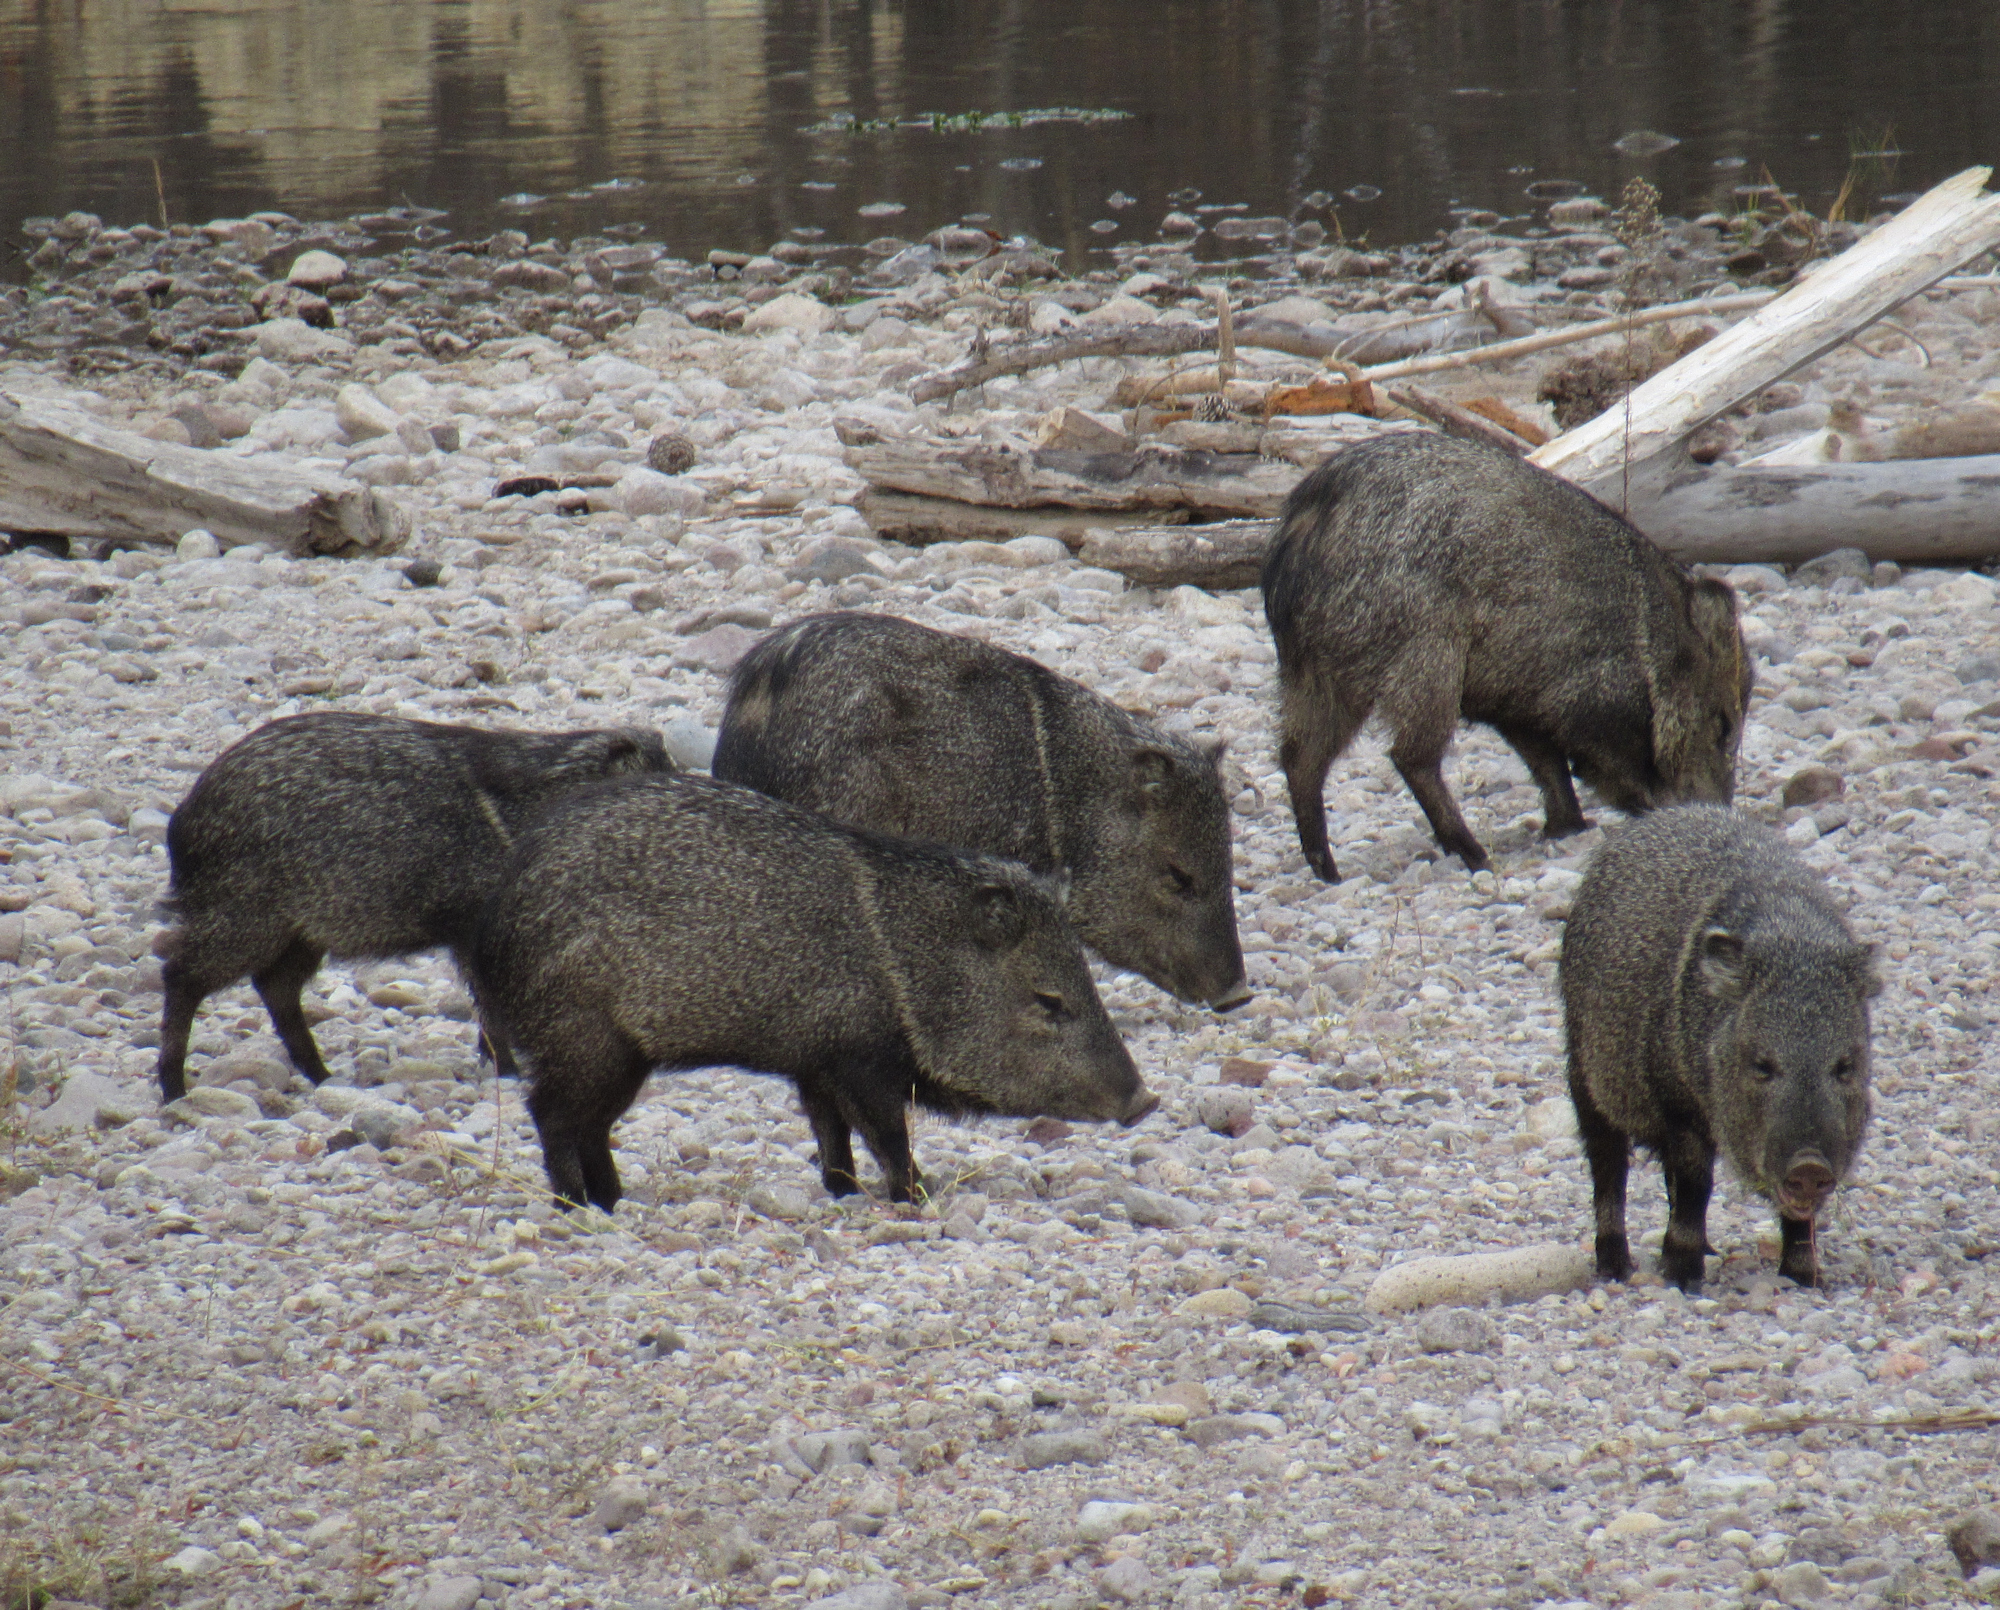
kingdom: Animalia
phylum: Chordata
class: Mammalia
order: Artiodactyla
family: Tayassuidae
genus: Pecari
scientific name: Pecari tajacu
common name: Collared peccary
